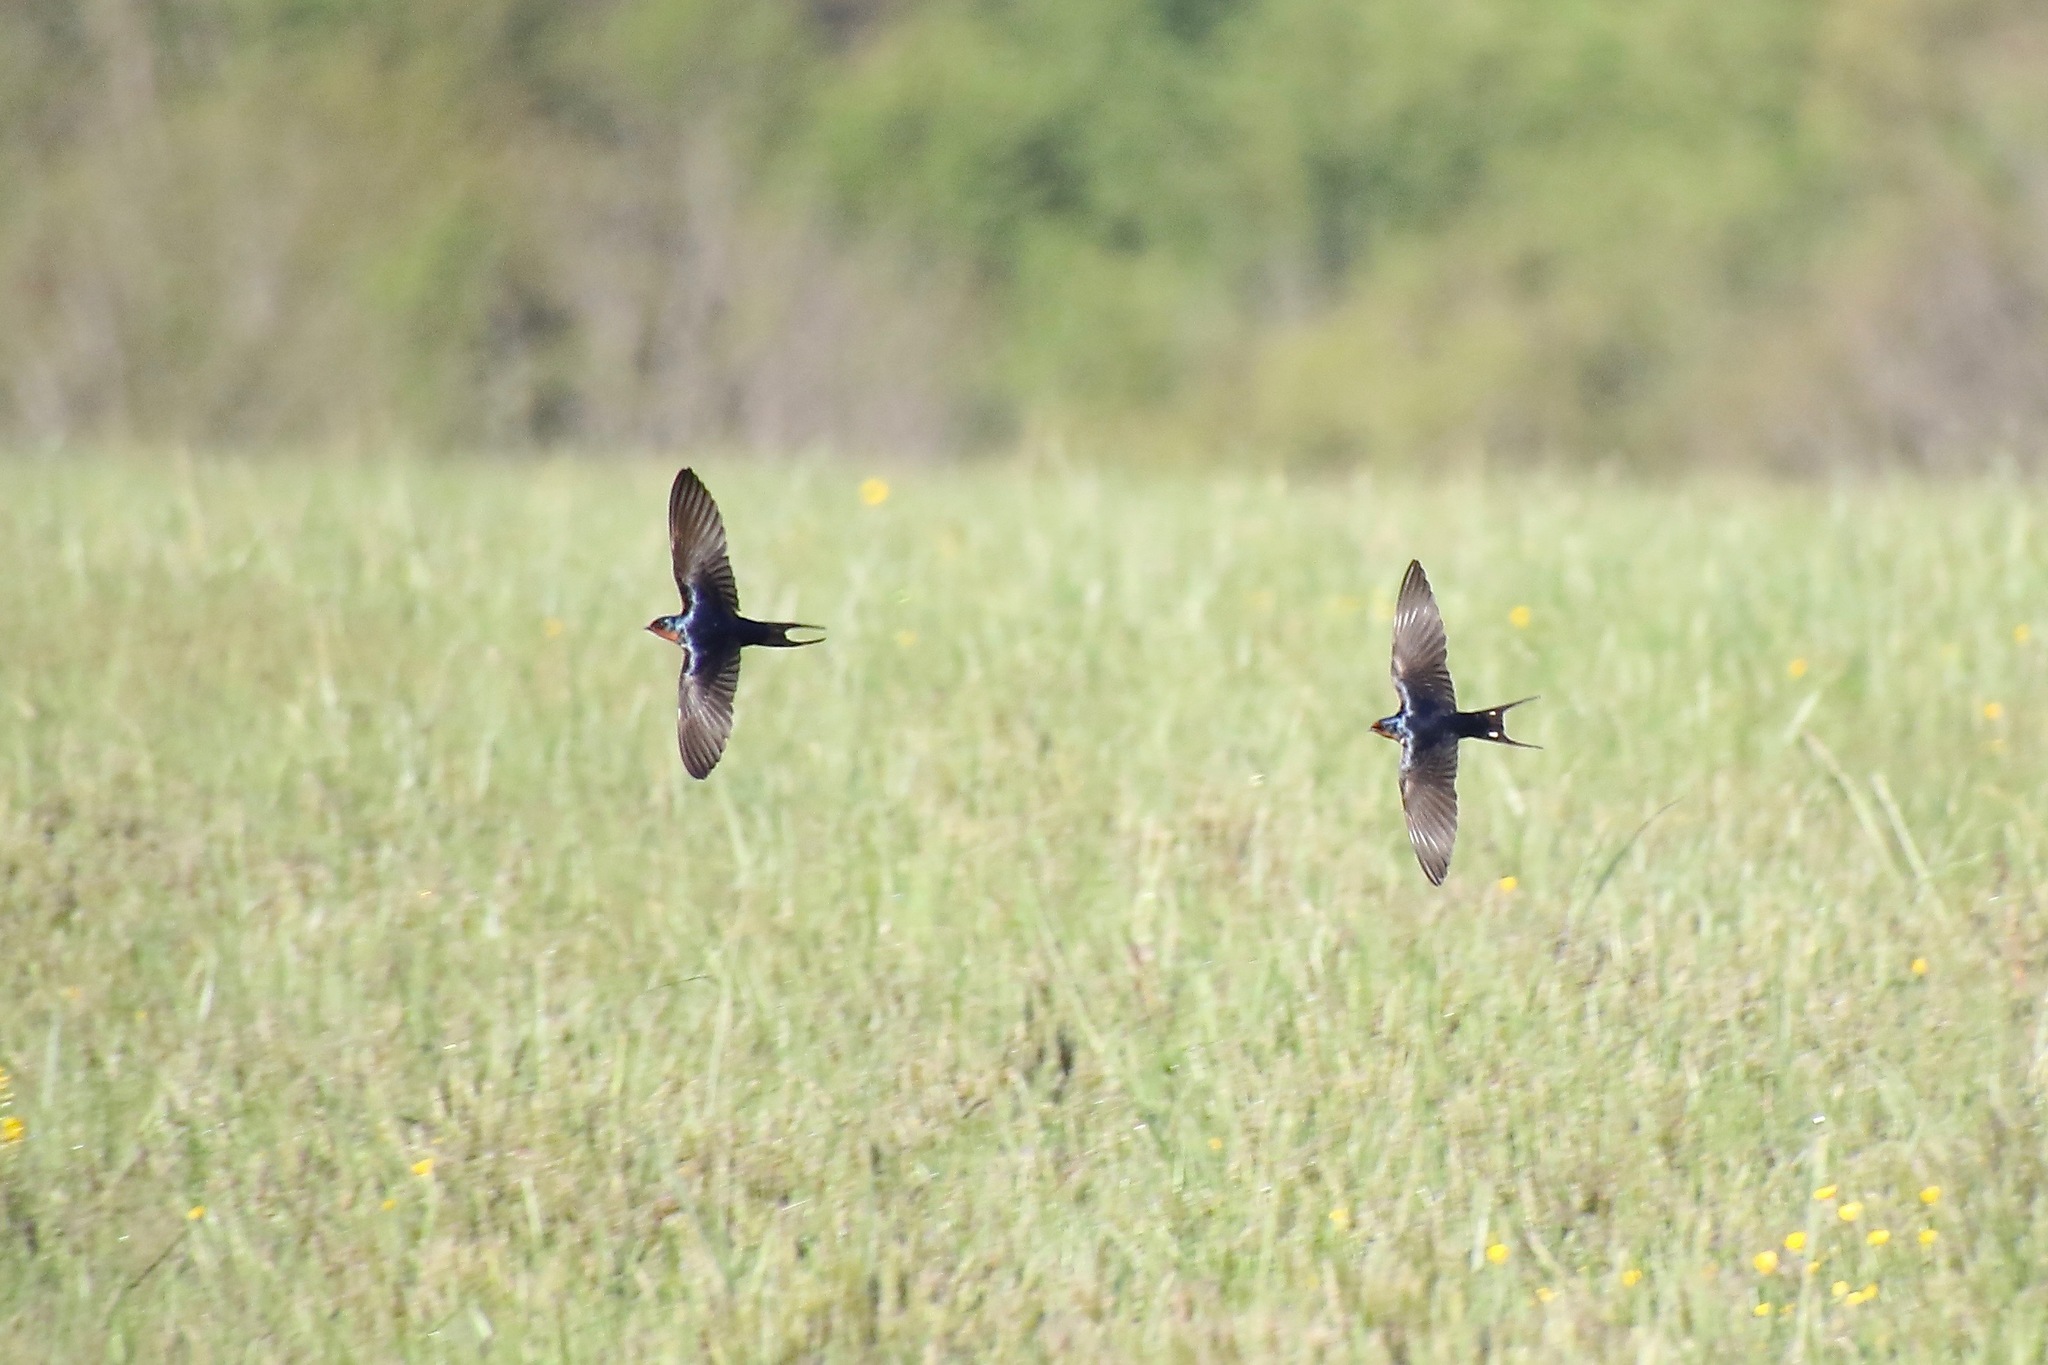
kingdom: Animalia
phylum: Chordata
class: Aves
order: Passeriformes
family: Hirundinidae
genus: Hirundo
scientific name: Hirundo rustica
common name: Barn swallow
